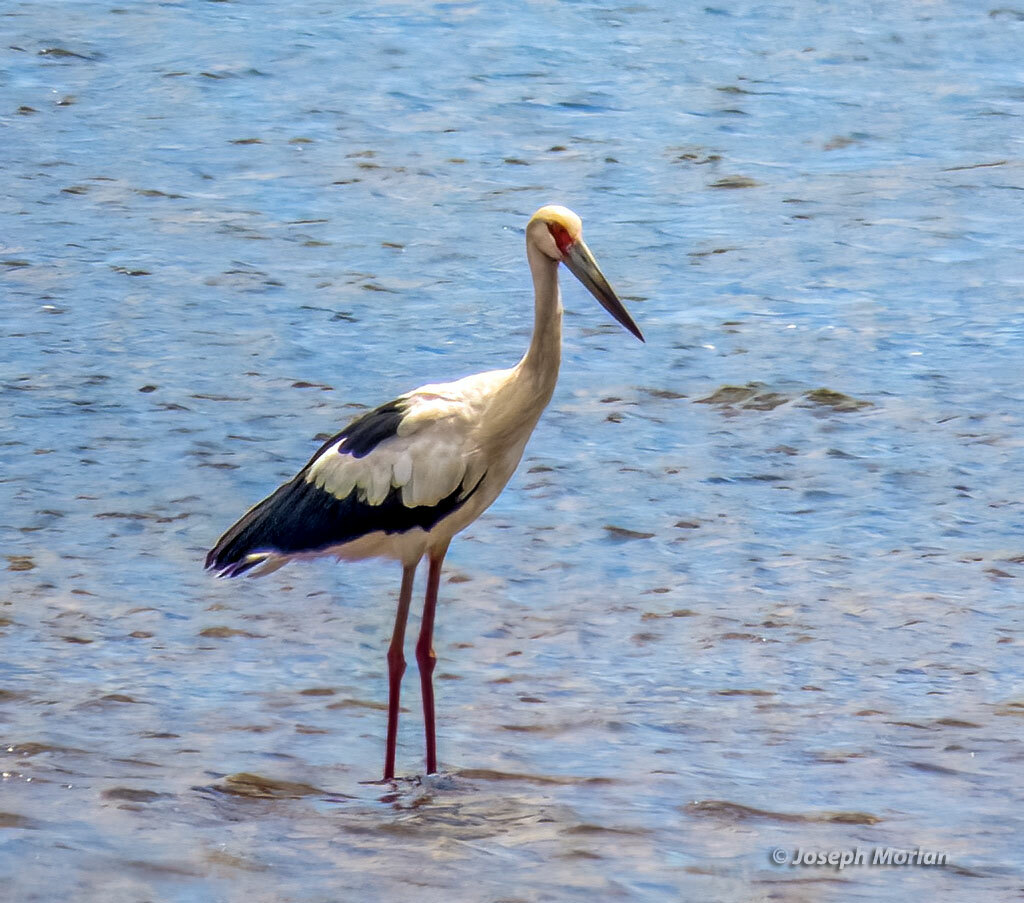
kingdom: Animalia
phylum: Chordata
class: Aves
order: Ciconiiformes
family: Ciconiidae
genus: Ciconia
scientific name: Ciconia maguari
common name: Maguari stork
